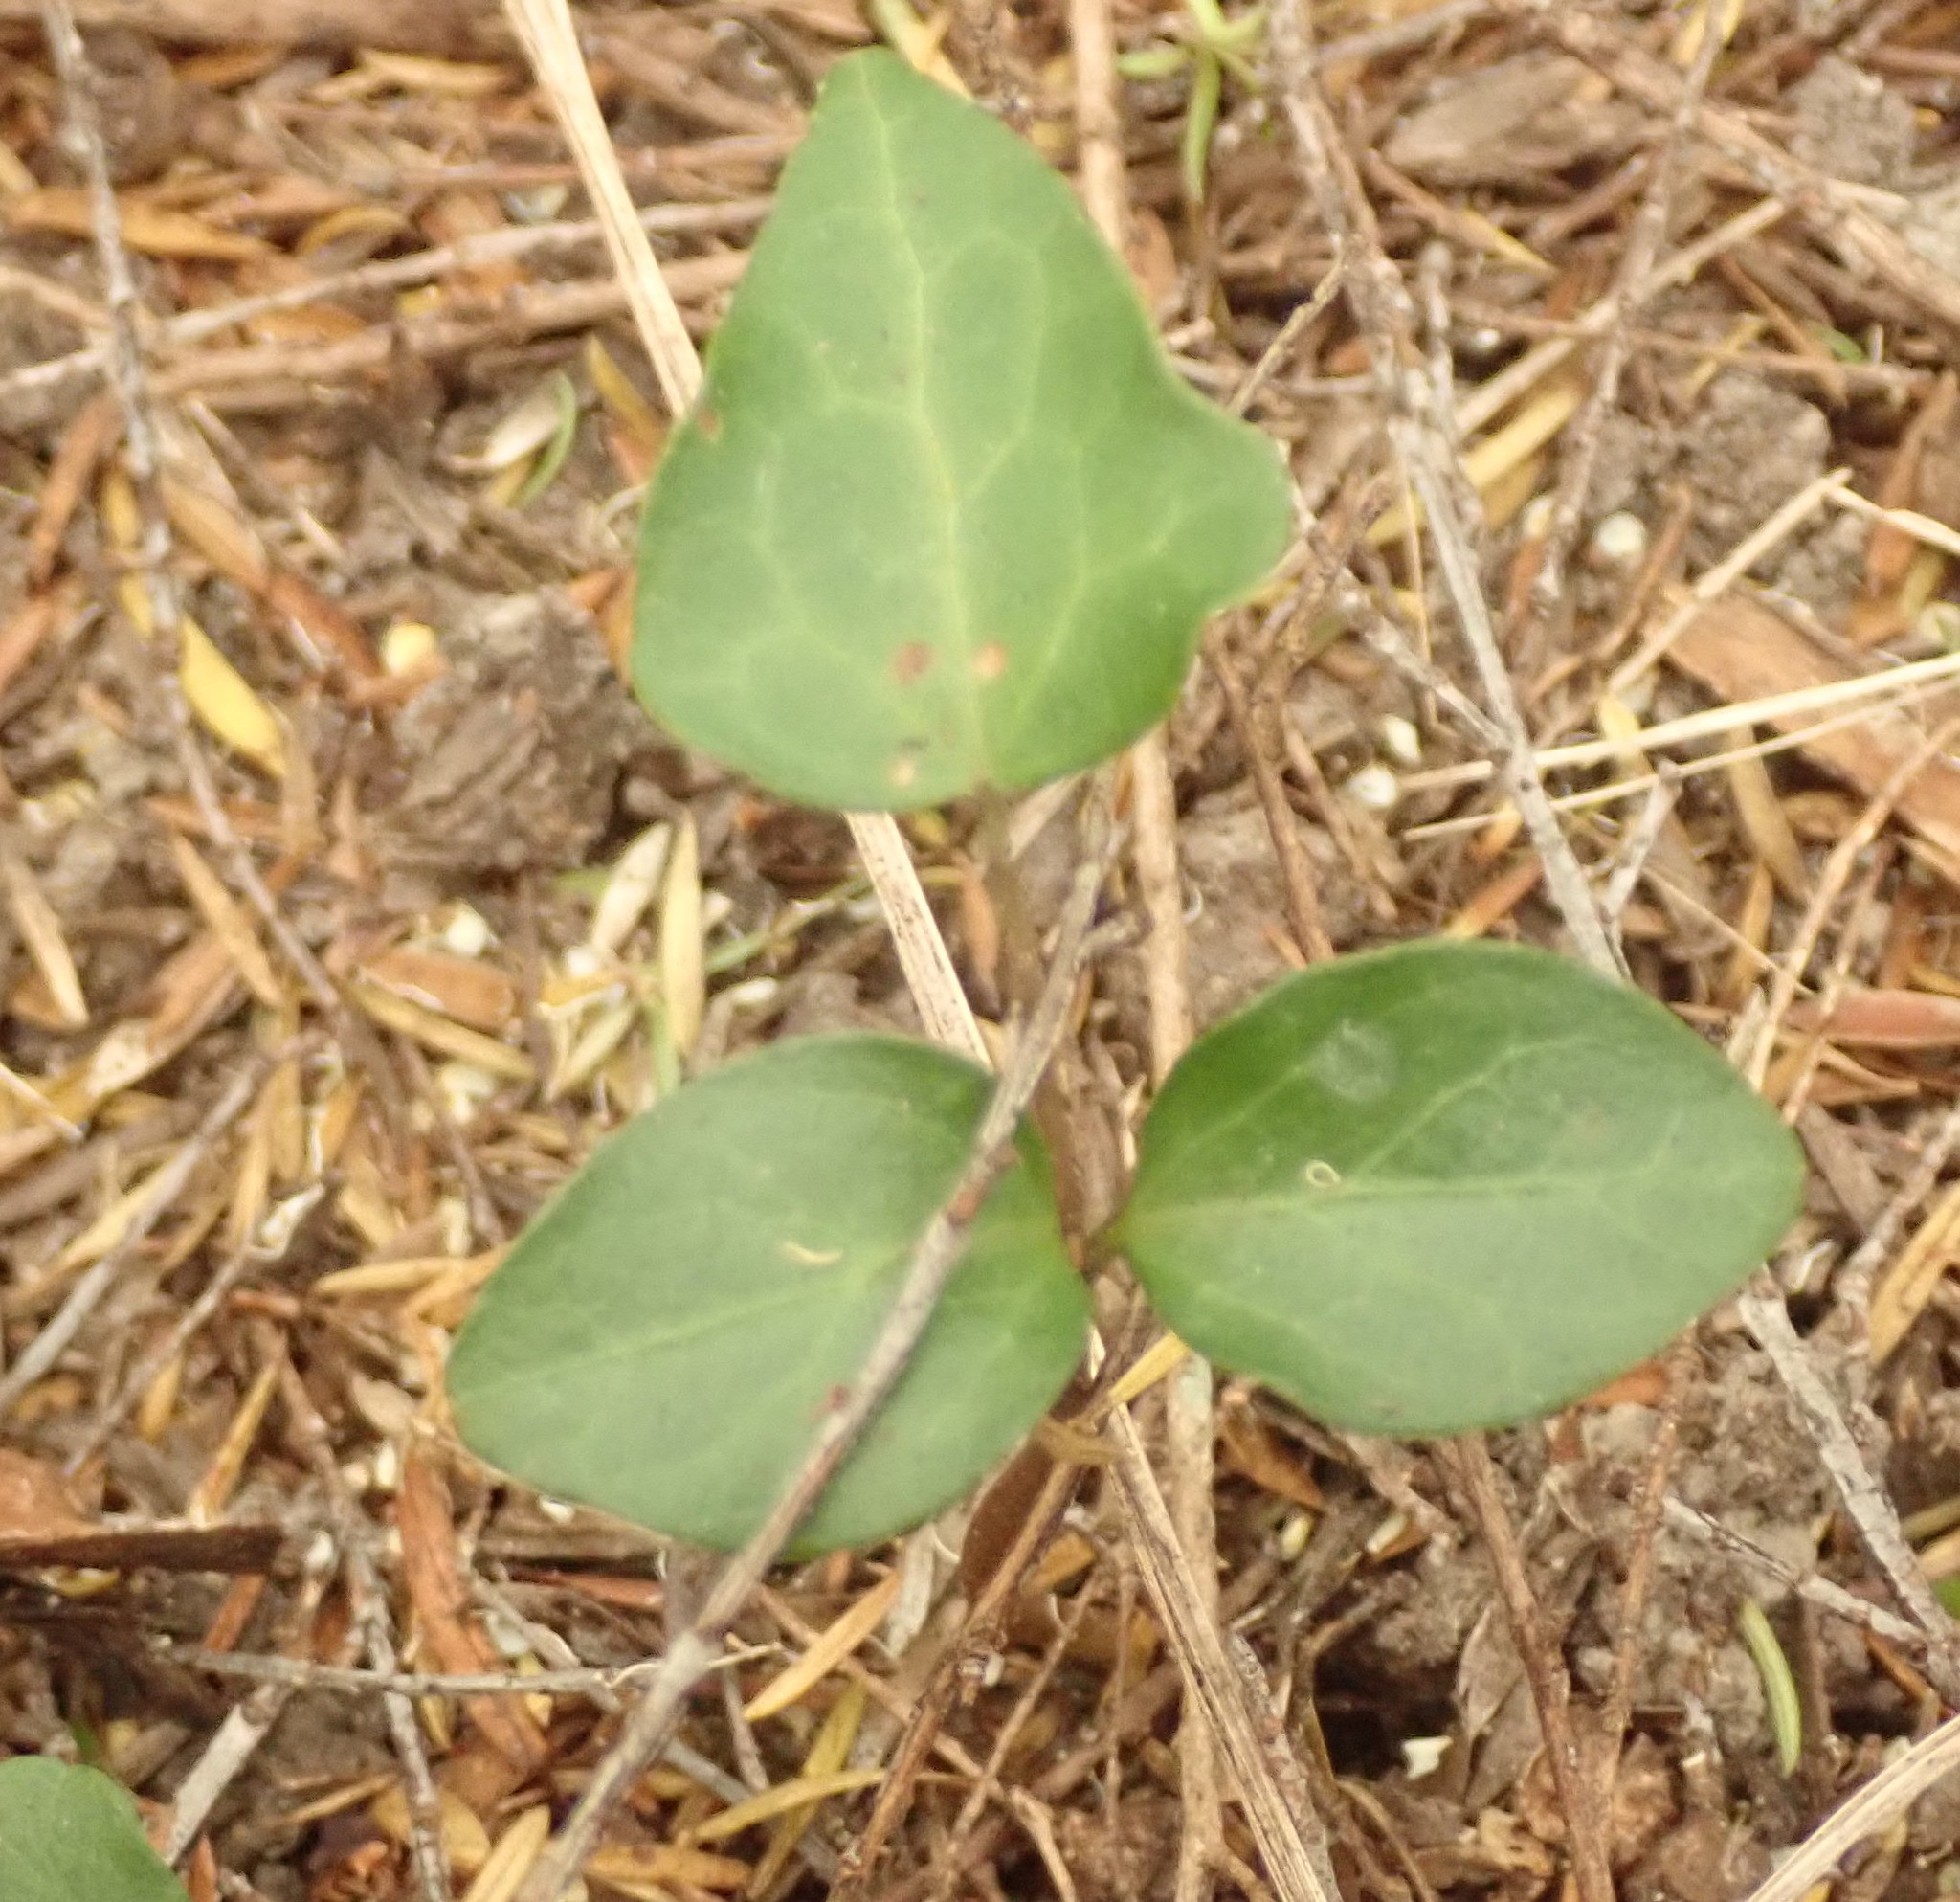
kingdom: Plantae
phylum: Tracheophyta
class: Magnoliopsida
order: Apiales
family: Araliaceae
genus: Hedera
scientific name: Hedera helix
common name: Ivy
